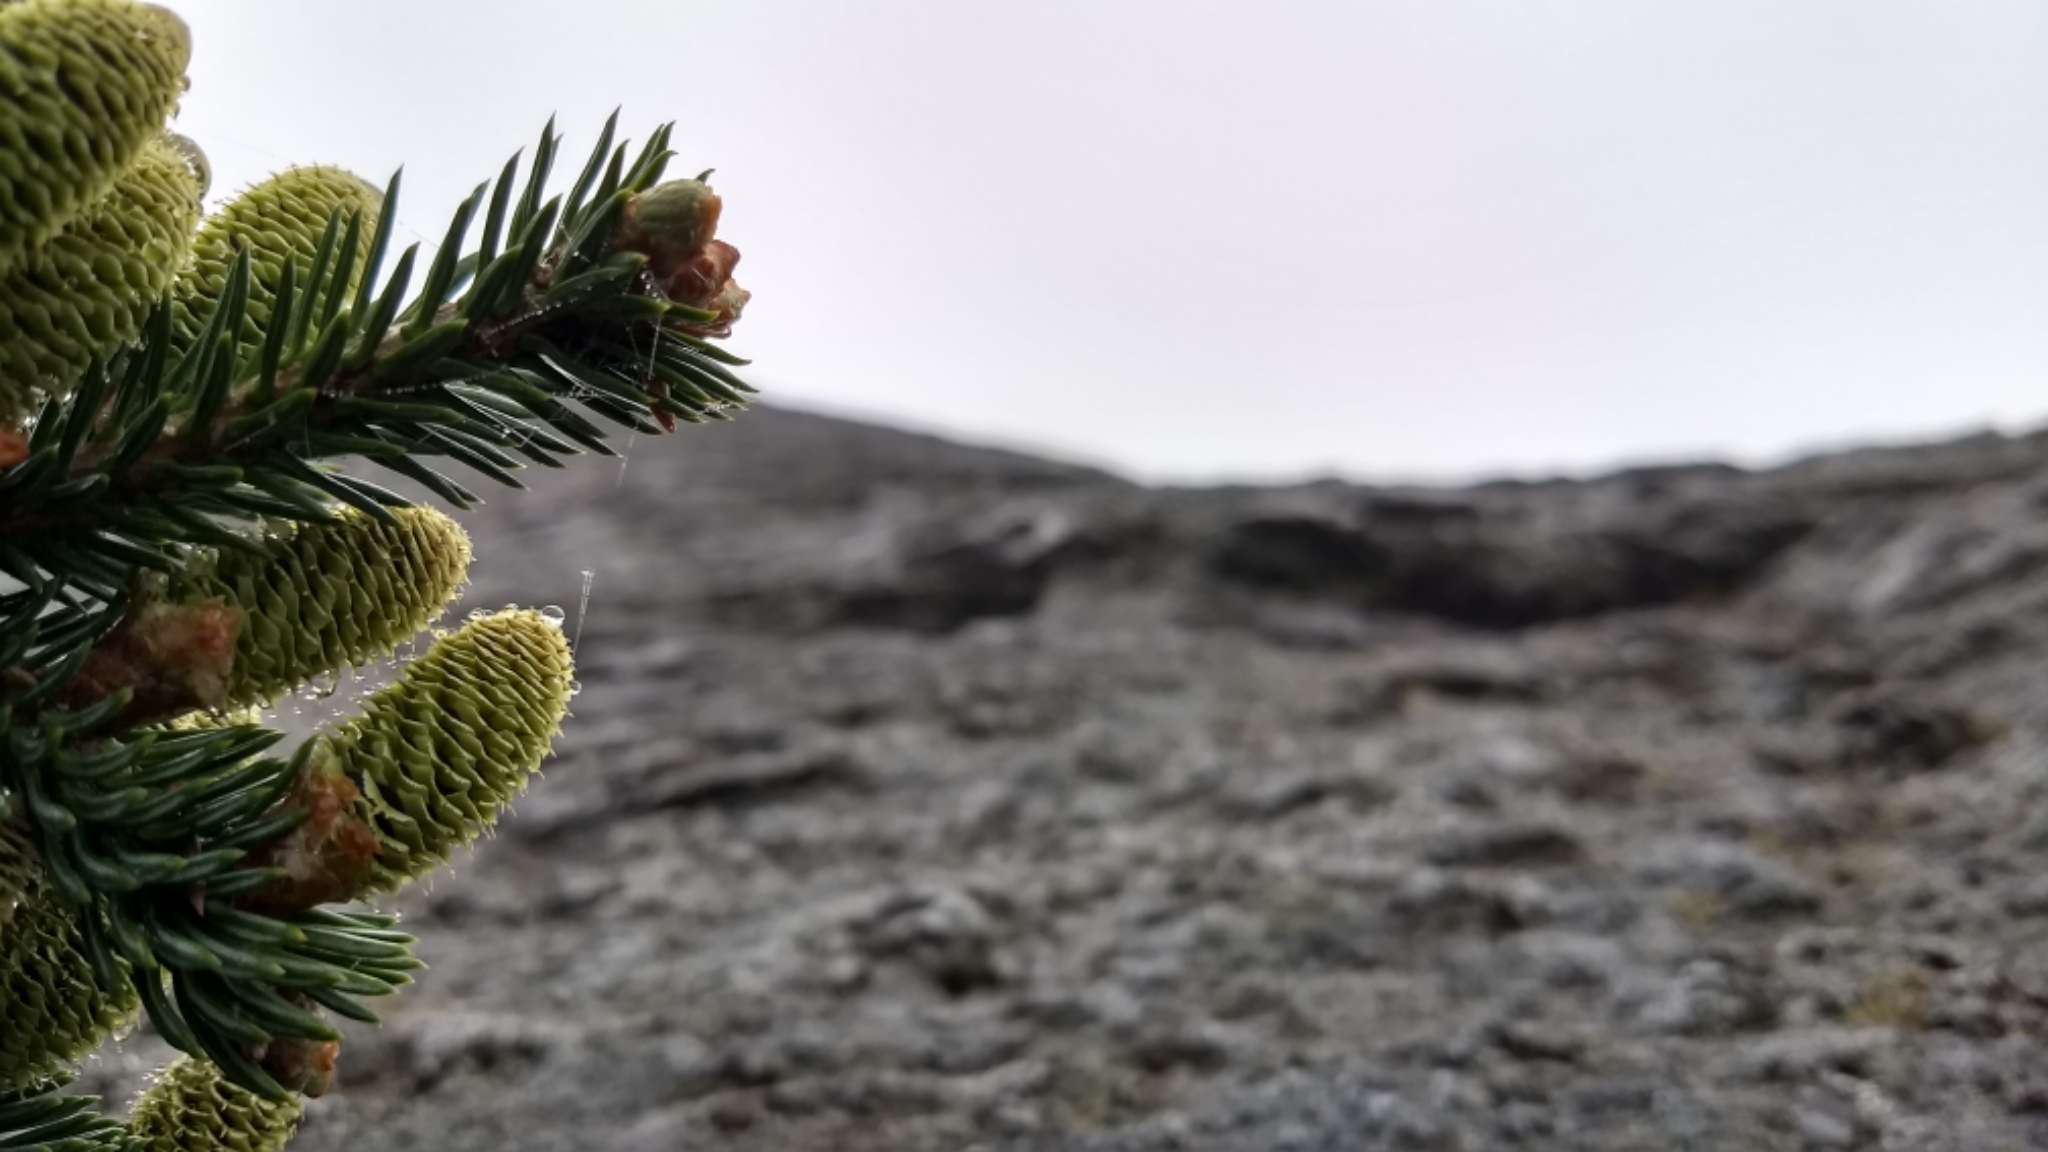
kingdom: Plantae
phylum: Tracheophyta
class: Pinopsida
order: Pinales
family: Pinaceae
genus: Abies
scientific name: Abies balsamea
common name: Balsam fir
